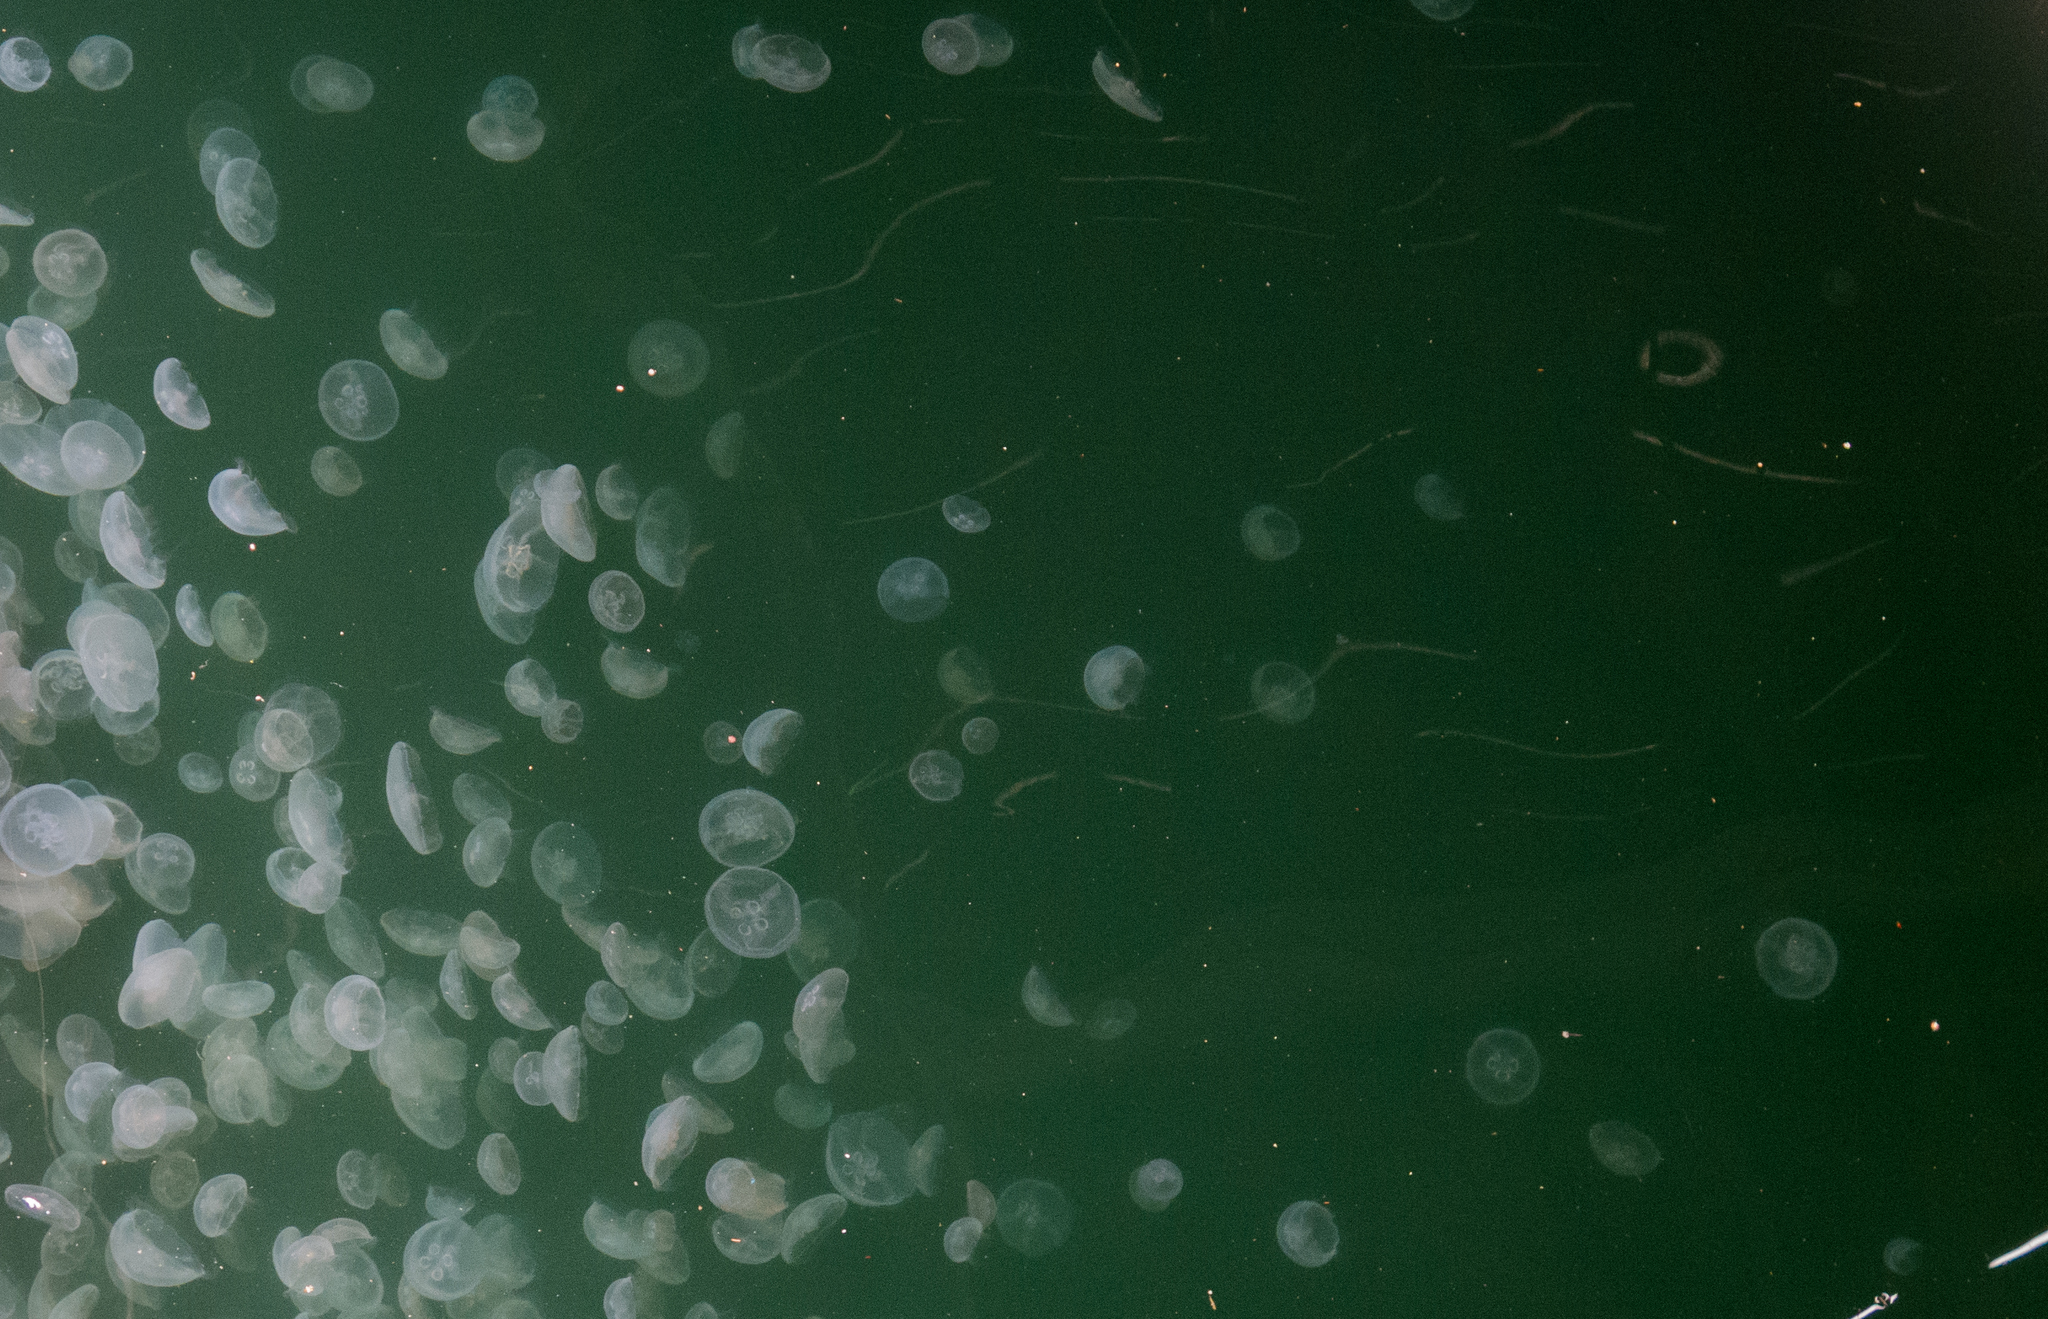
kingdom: Animalia
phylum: Cnidaria
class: Scyphozoa
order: Semaeostomeae
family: Ulmaridae
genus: Aurelia
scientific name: Aurelia
